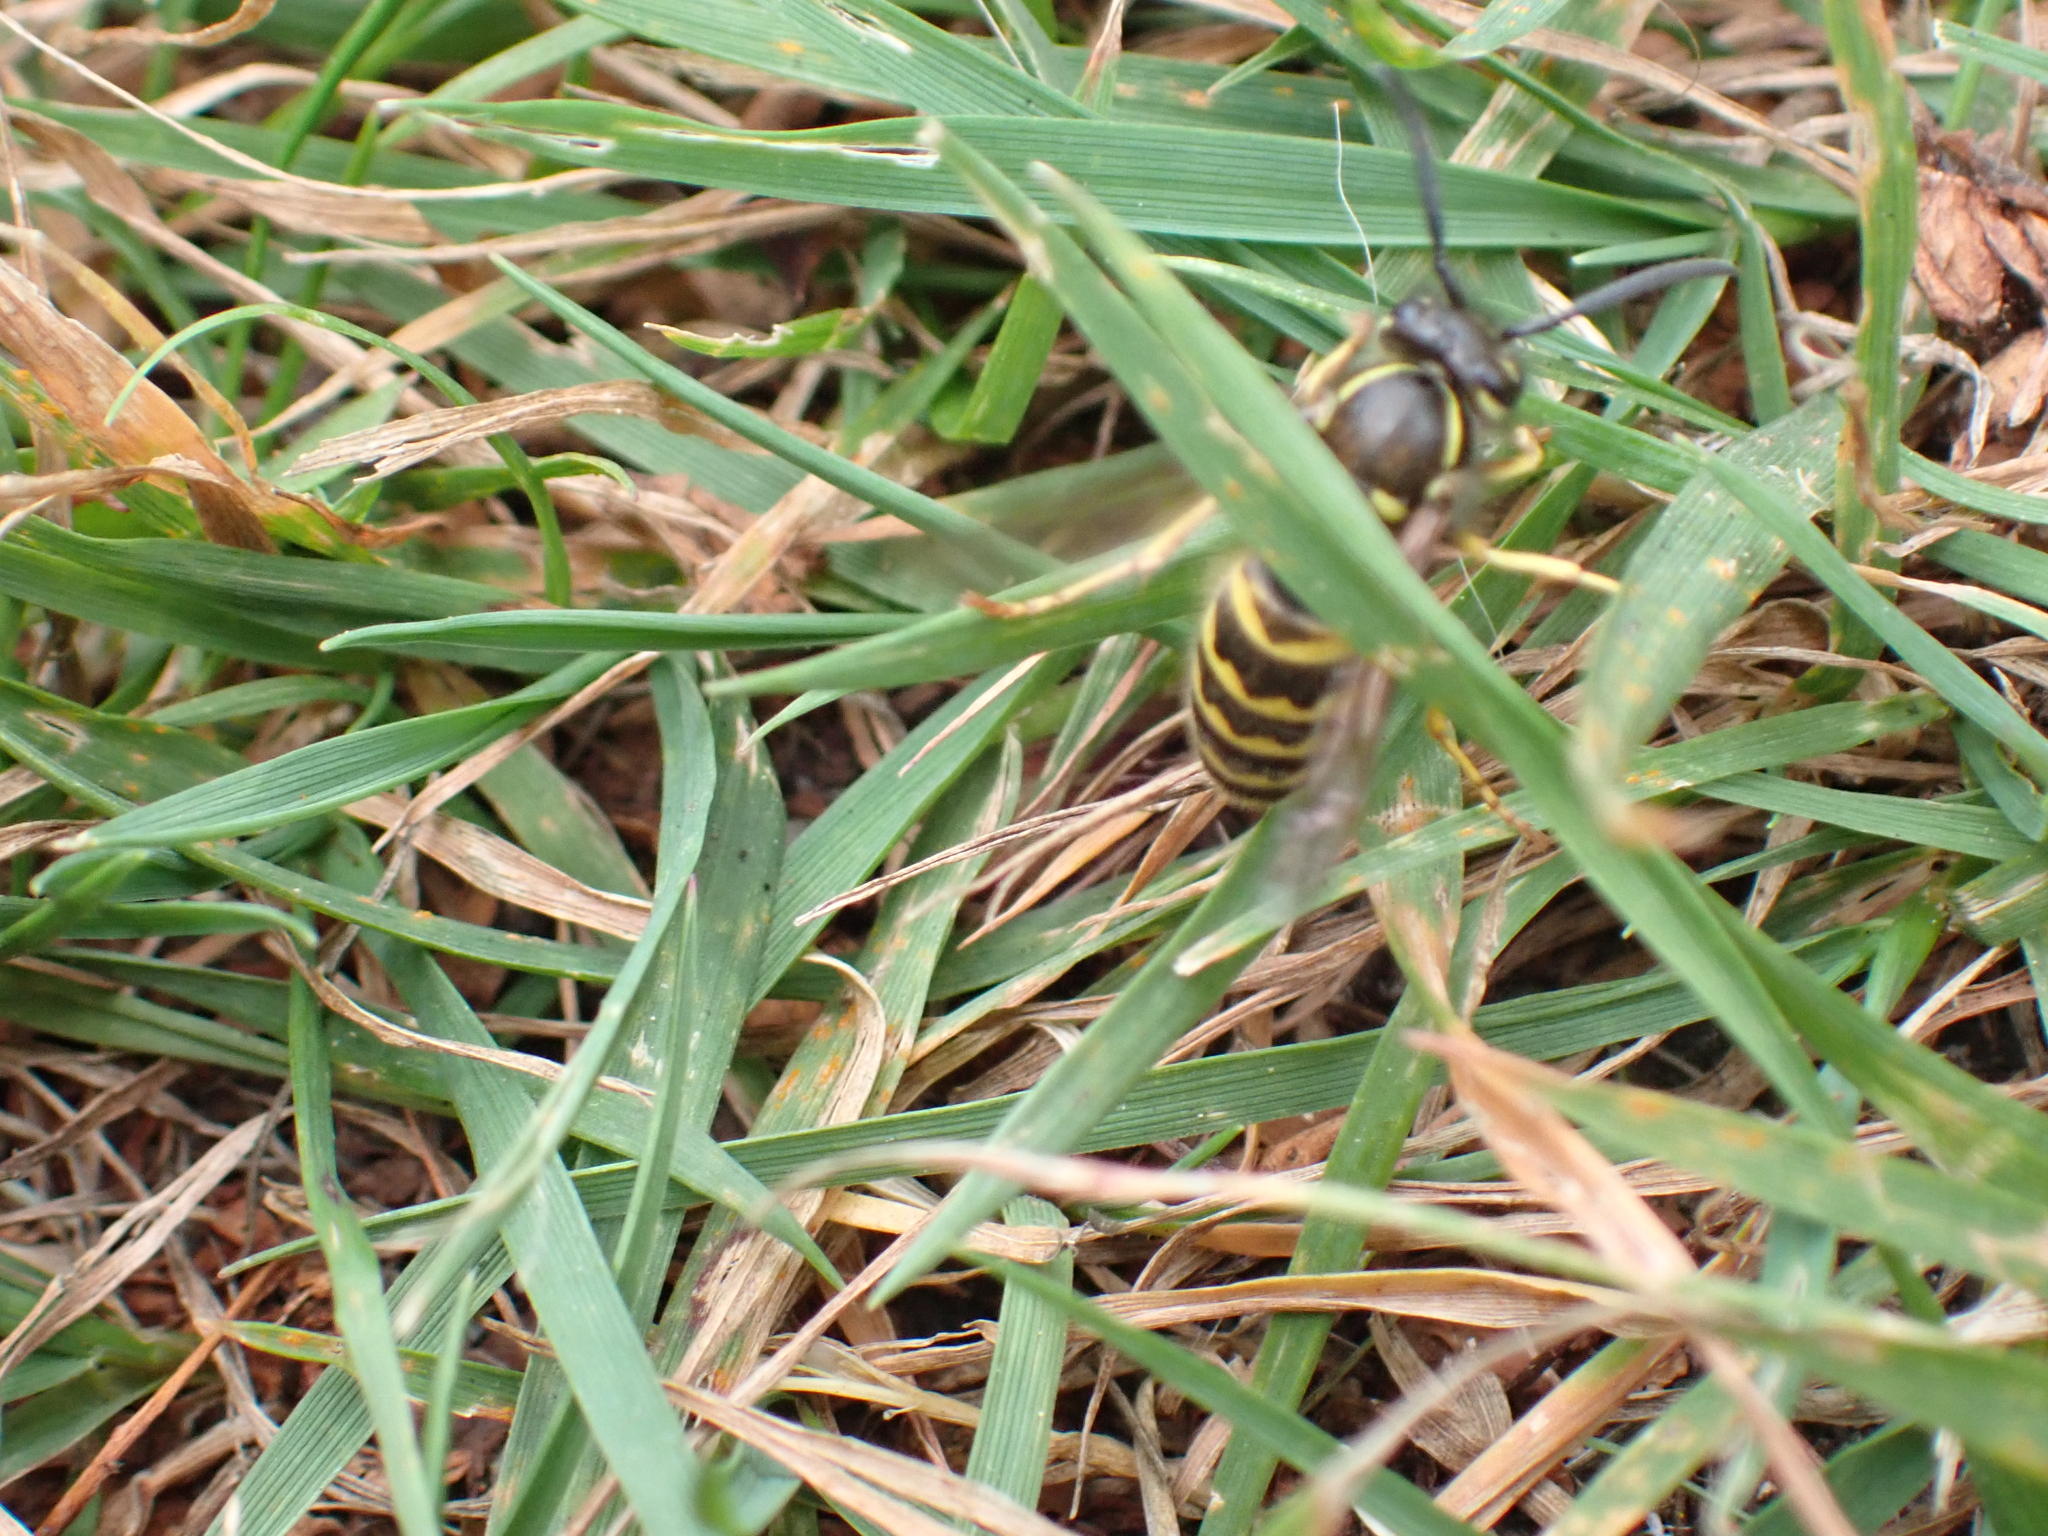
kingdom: Animalia
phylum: Arthropoda
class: Insecta
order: Hymenoptera
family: Vespidae
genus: Vespula
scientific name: Vespula alascensis
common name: Alaska yellowjacket
